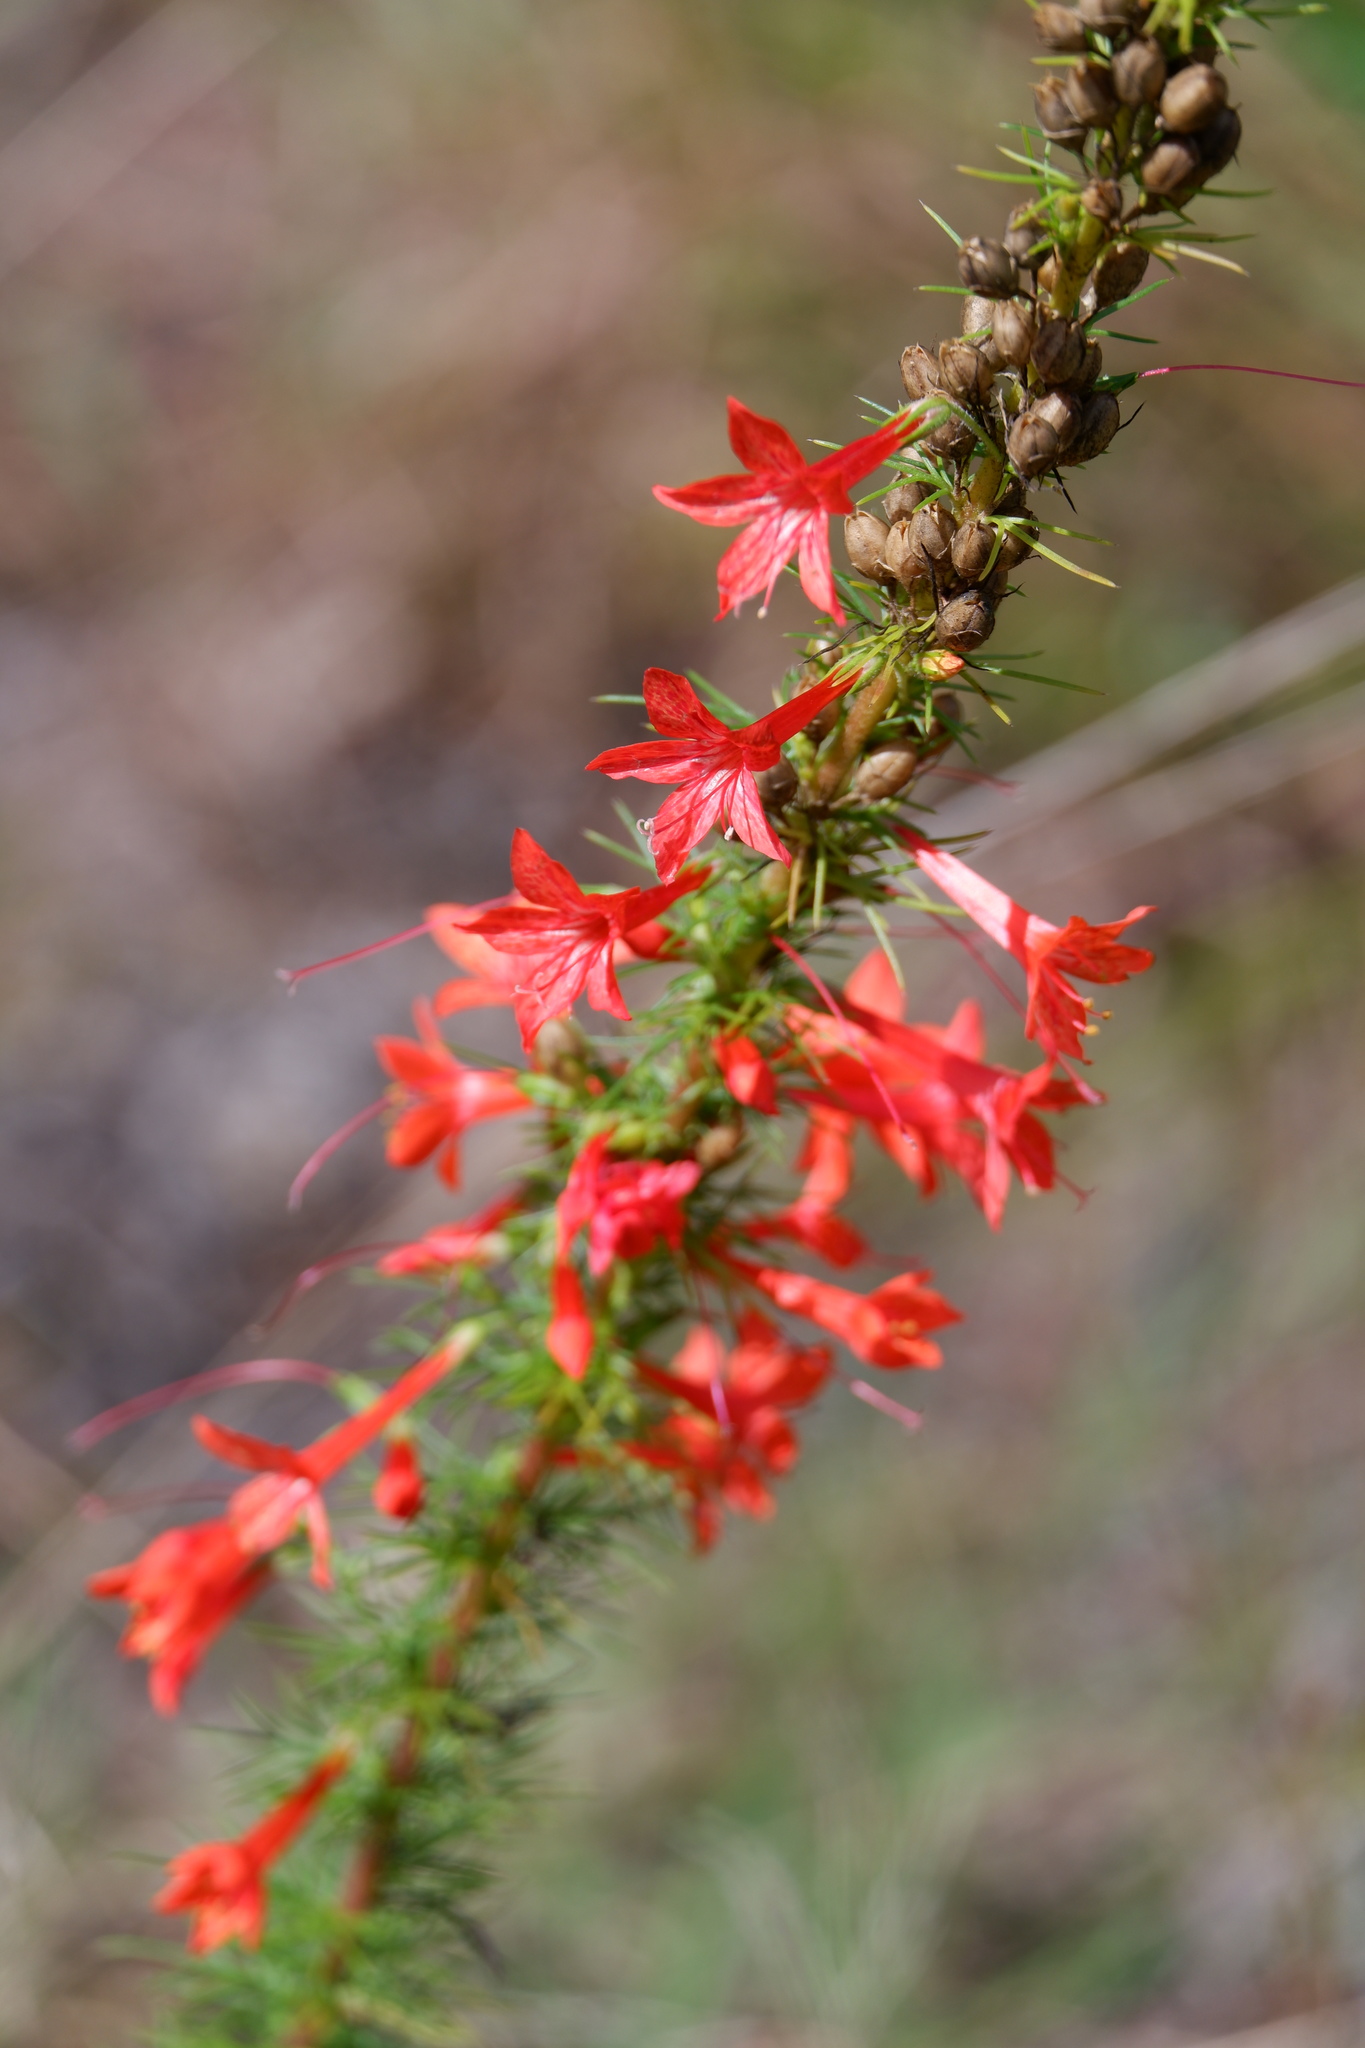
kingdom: Plantae
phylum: Tracheophyta
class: Magnoliopsida
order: Ericales
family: Polemoniaceae
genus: Ipomopsis
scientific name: Ipomopsis rubra
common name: Skyrocket
